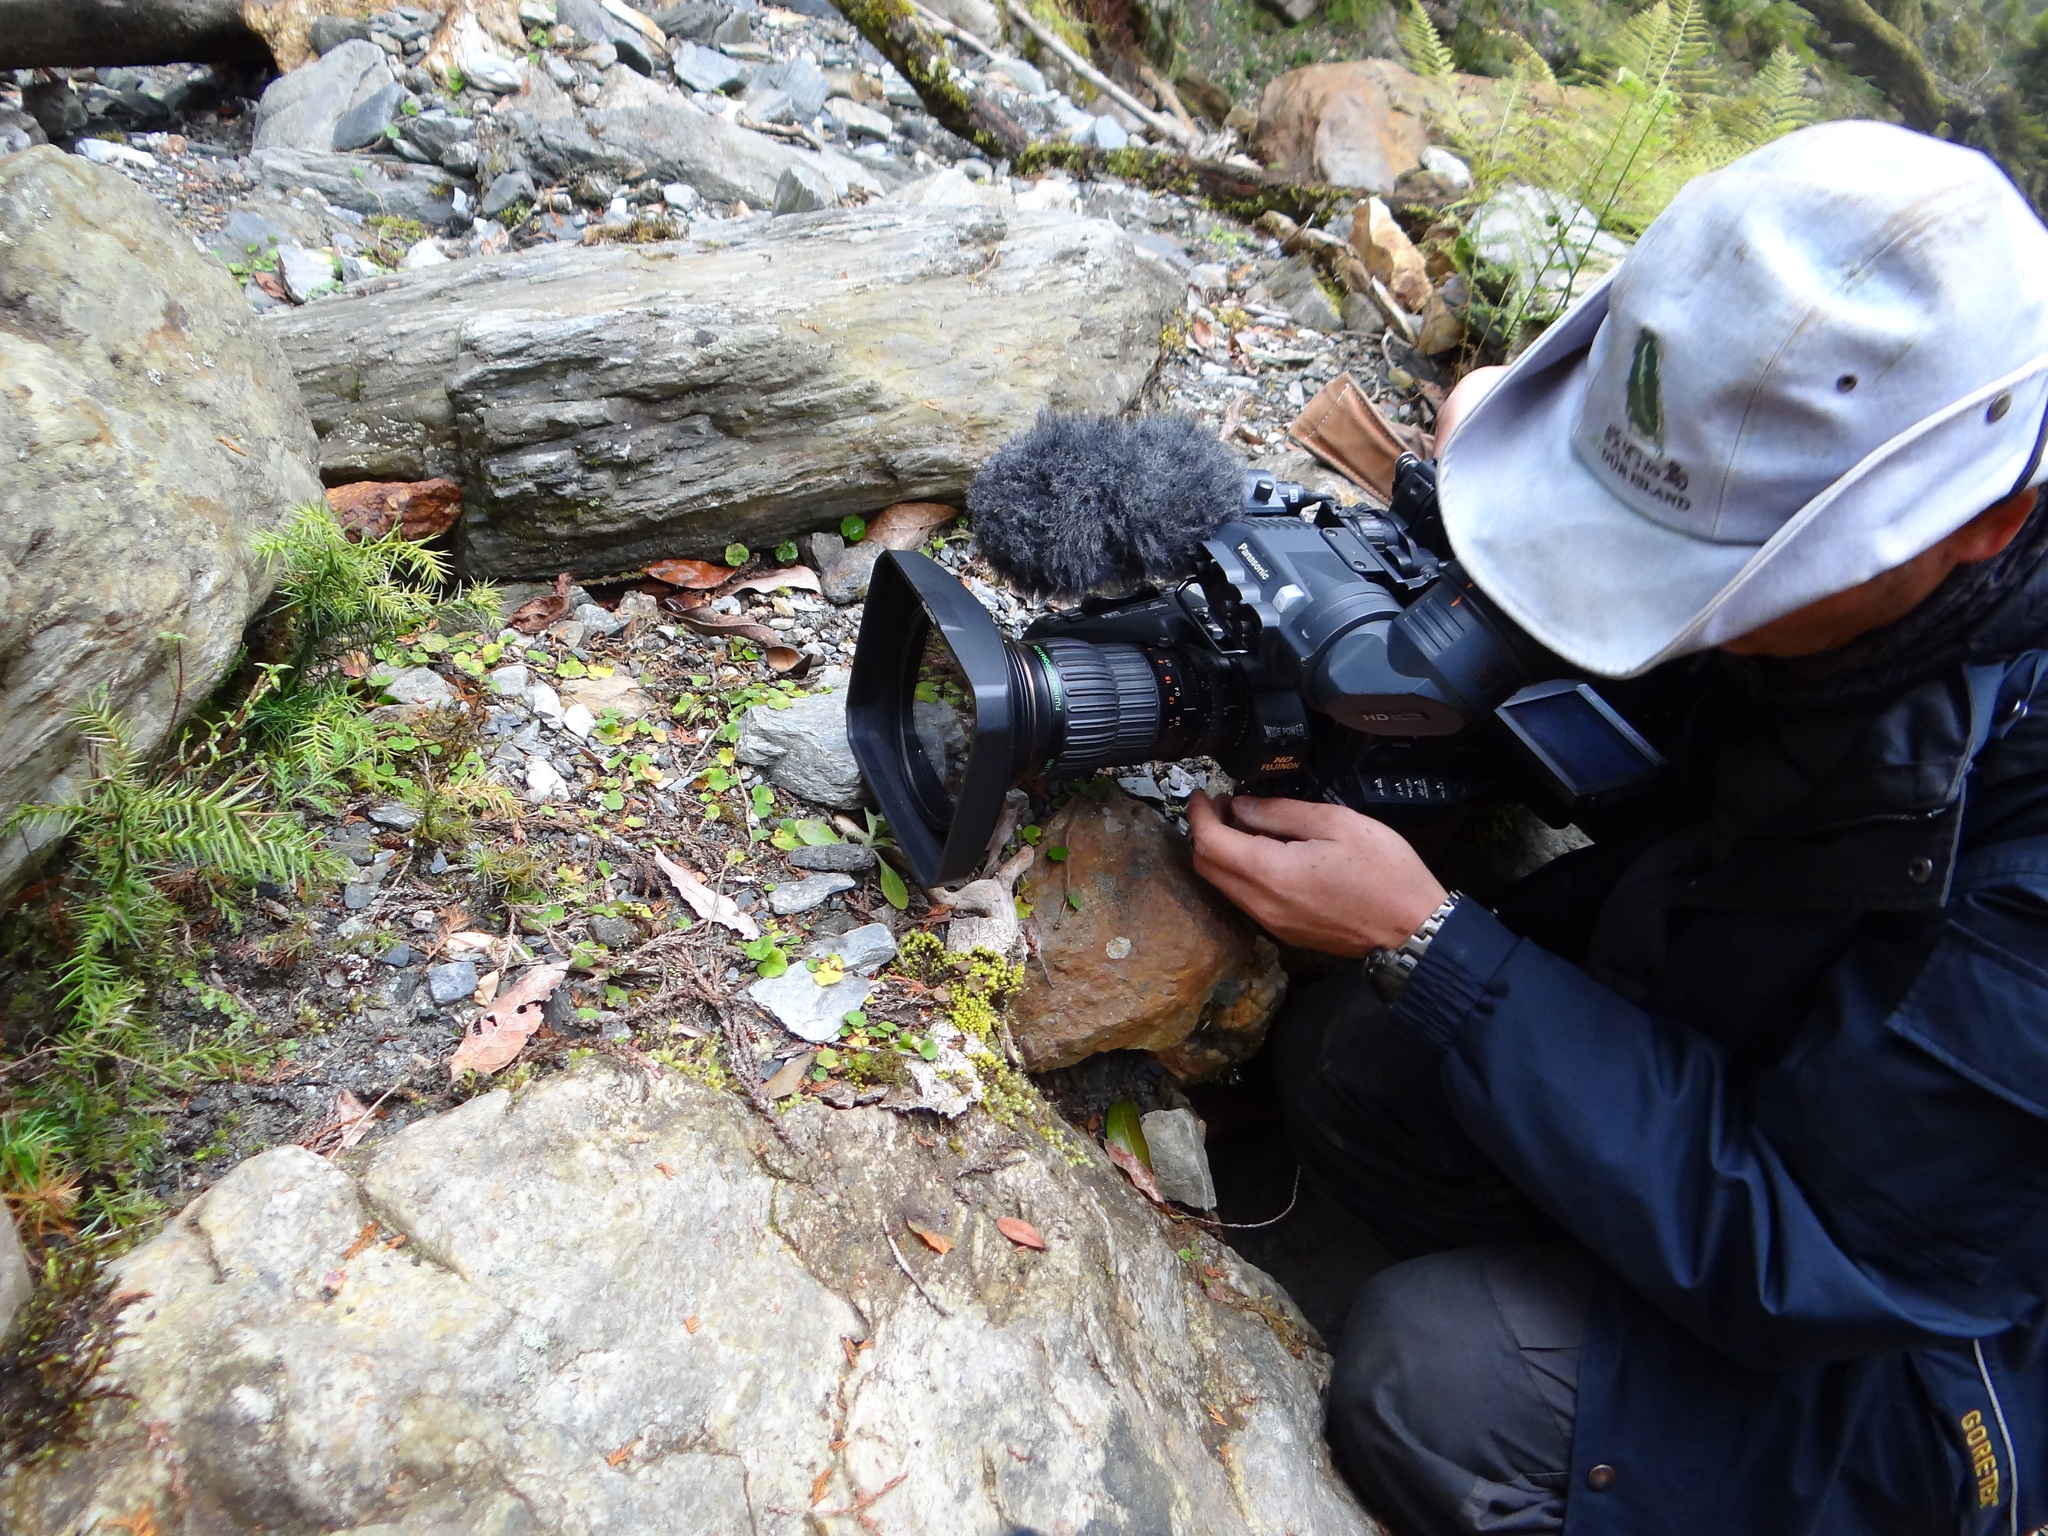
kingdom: Plantae
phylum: Tracheophyta
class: Pinopsida
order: Pinales
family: Cupressaceae
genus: Taiwania
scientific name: Taiwania cryptomerioides
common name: Coffin tree
